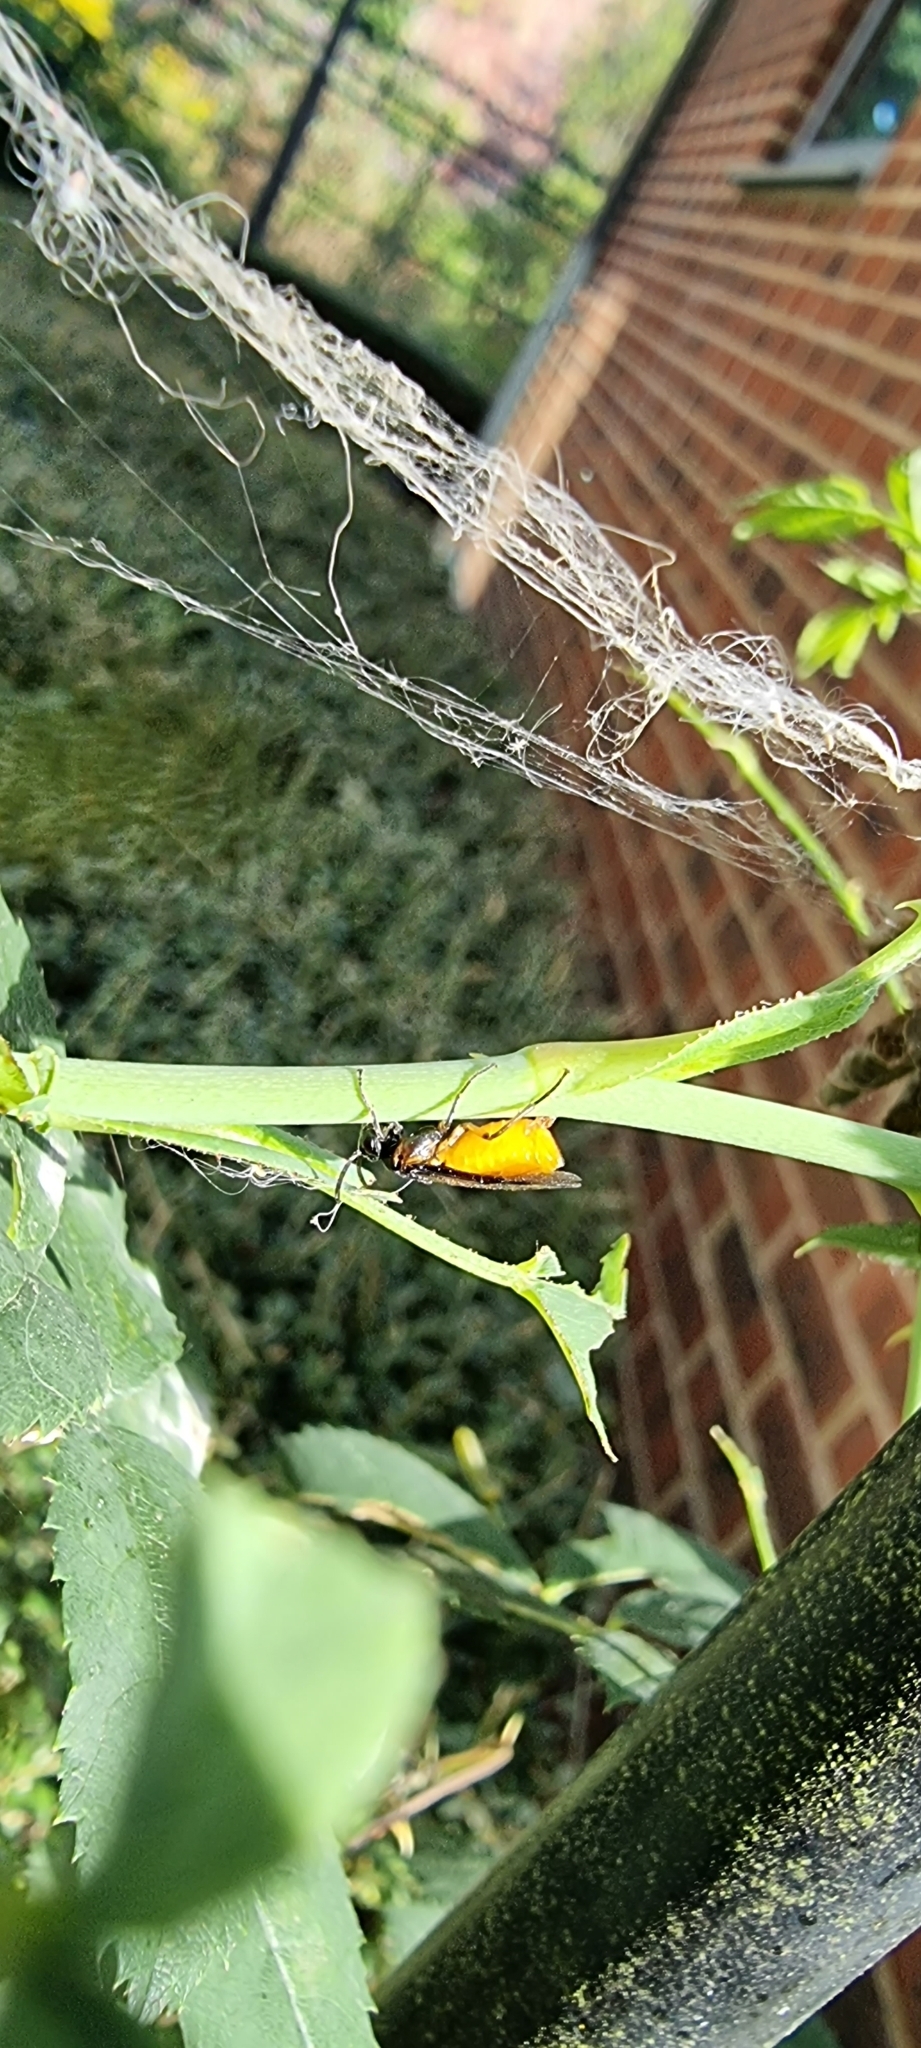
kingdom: Animalia
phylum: Arthropoda
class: Insecta
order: Hymenoptera
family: Argidae
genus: Arge
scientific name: Arge pagana
